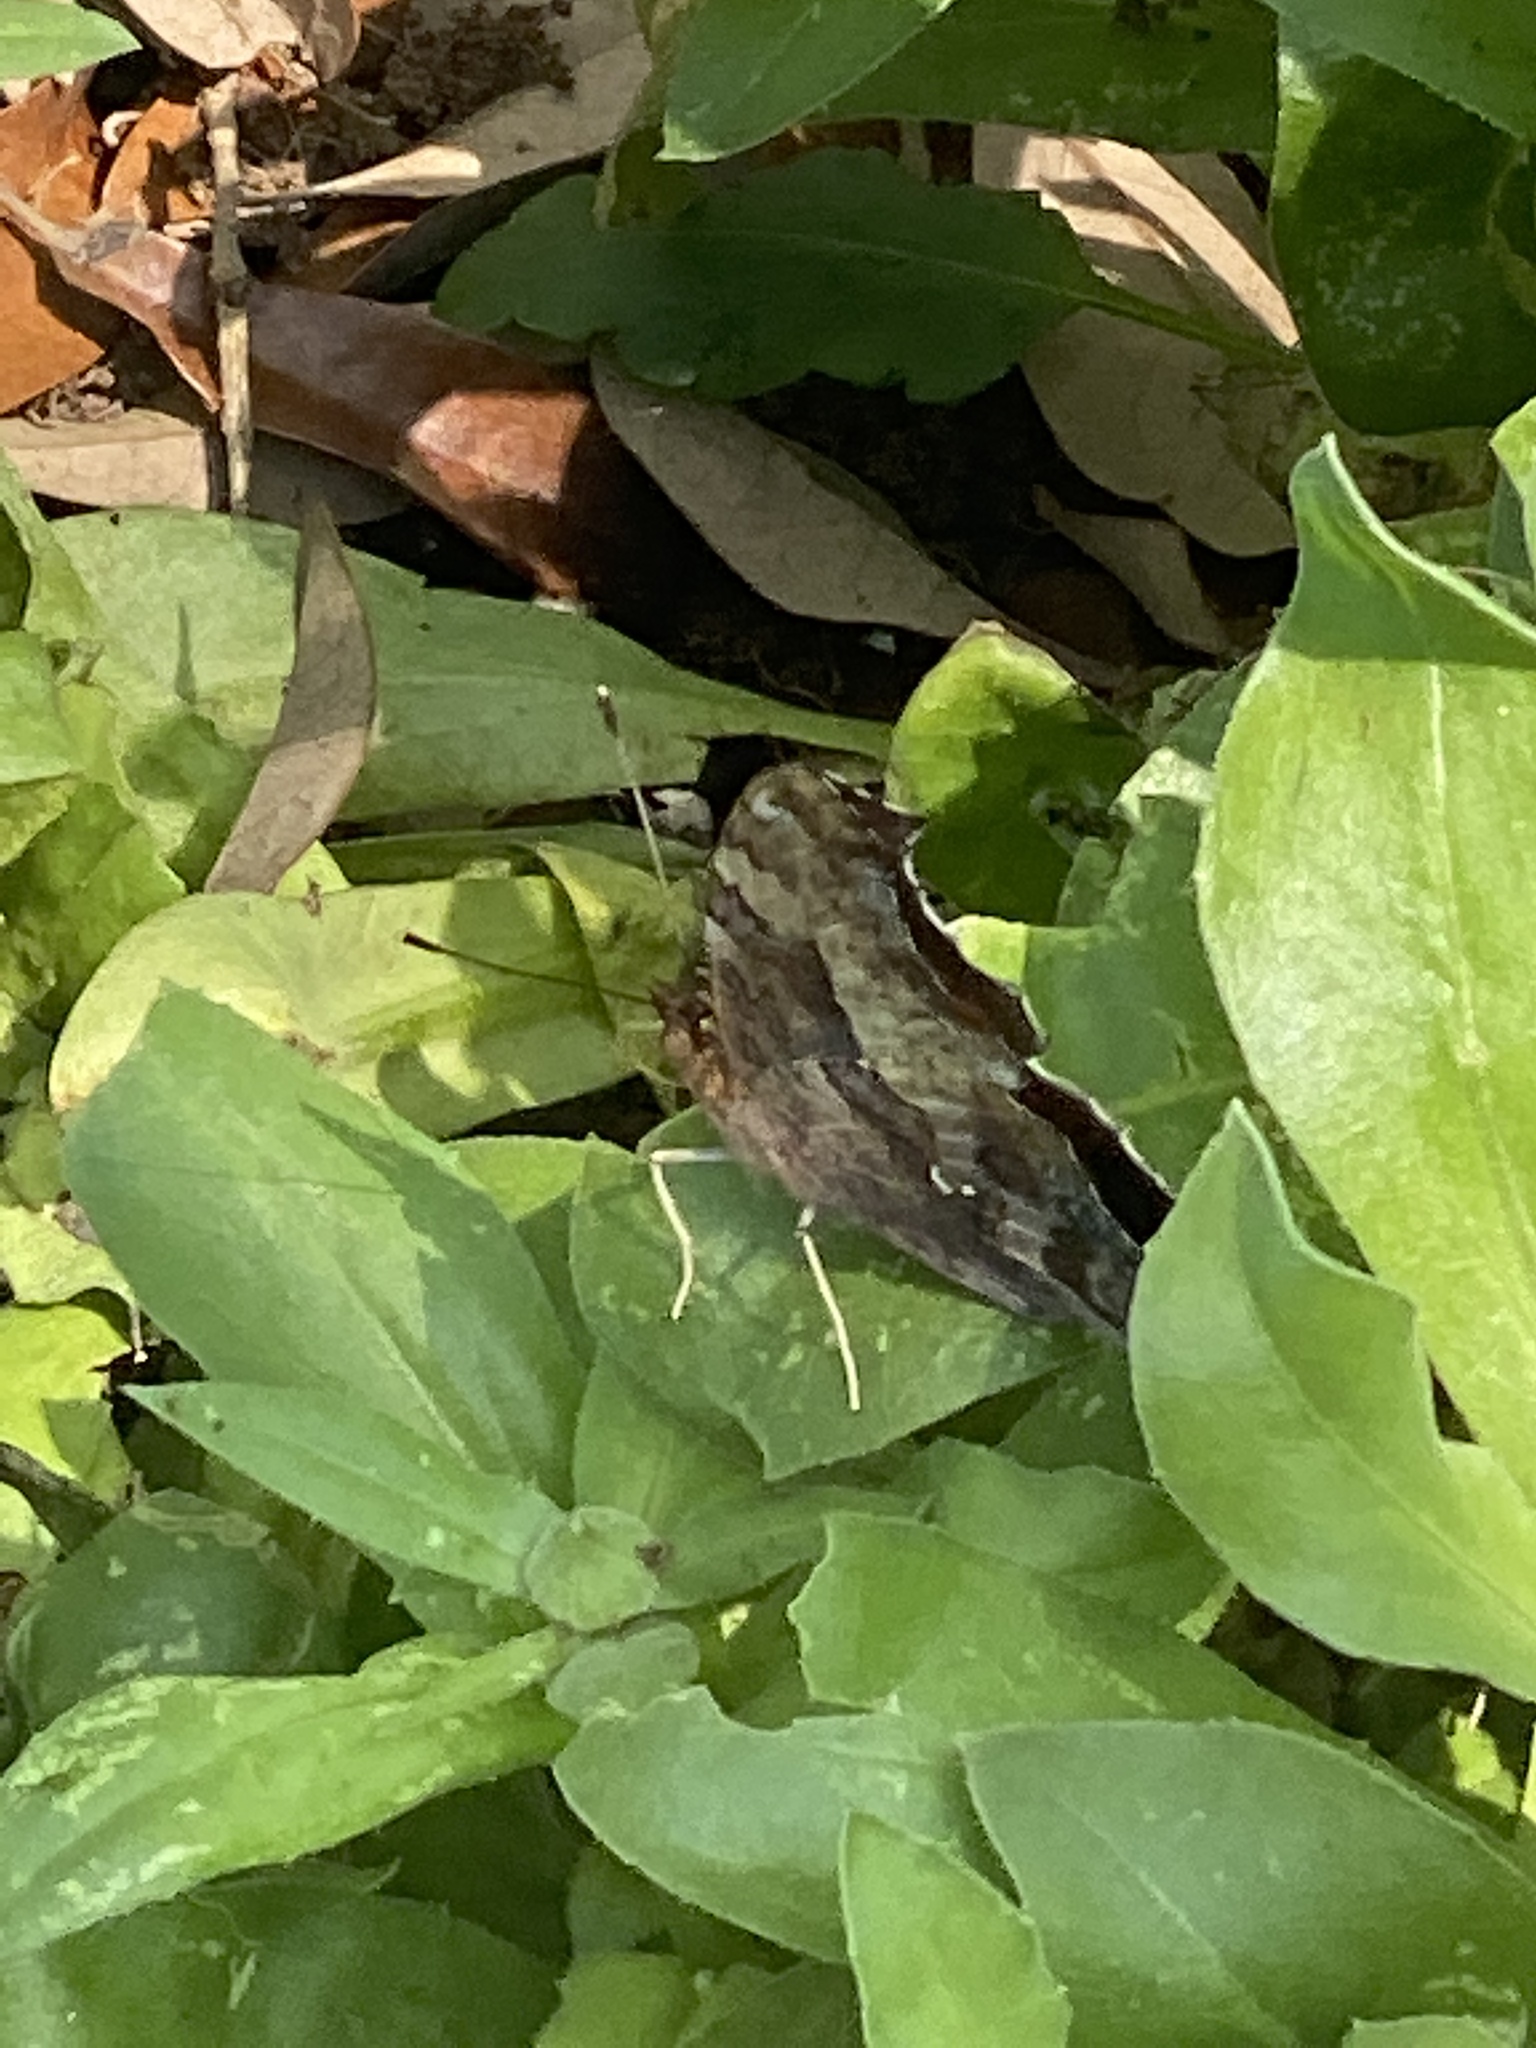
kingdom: Animalia
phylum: Arthropoda
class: Insecta
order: Lepidoptera
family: Nymphalidae
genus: Polygonia
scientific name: Polygonia interrogationis
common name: Question mark
